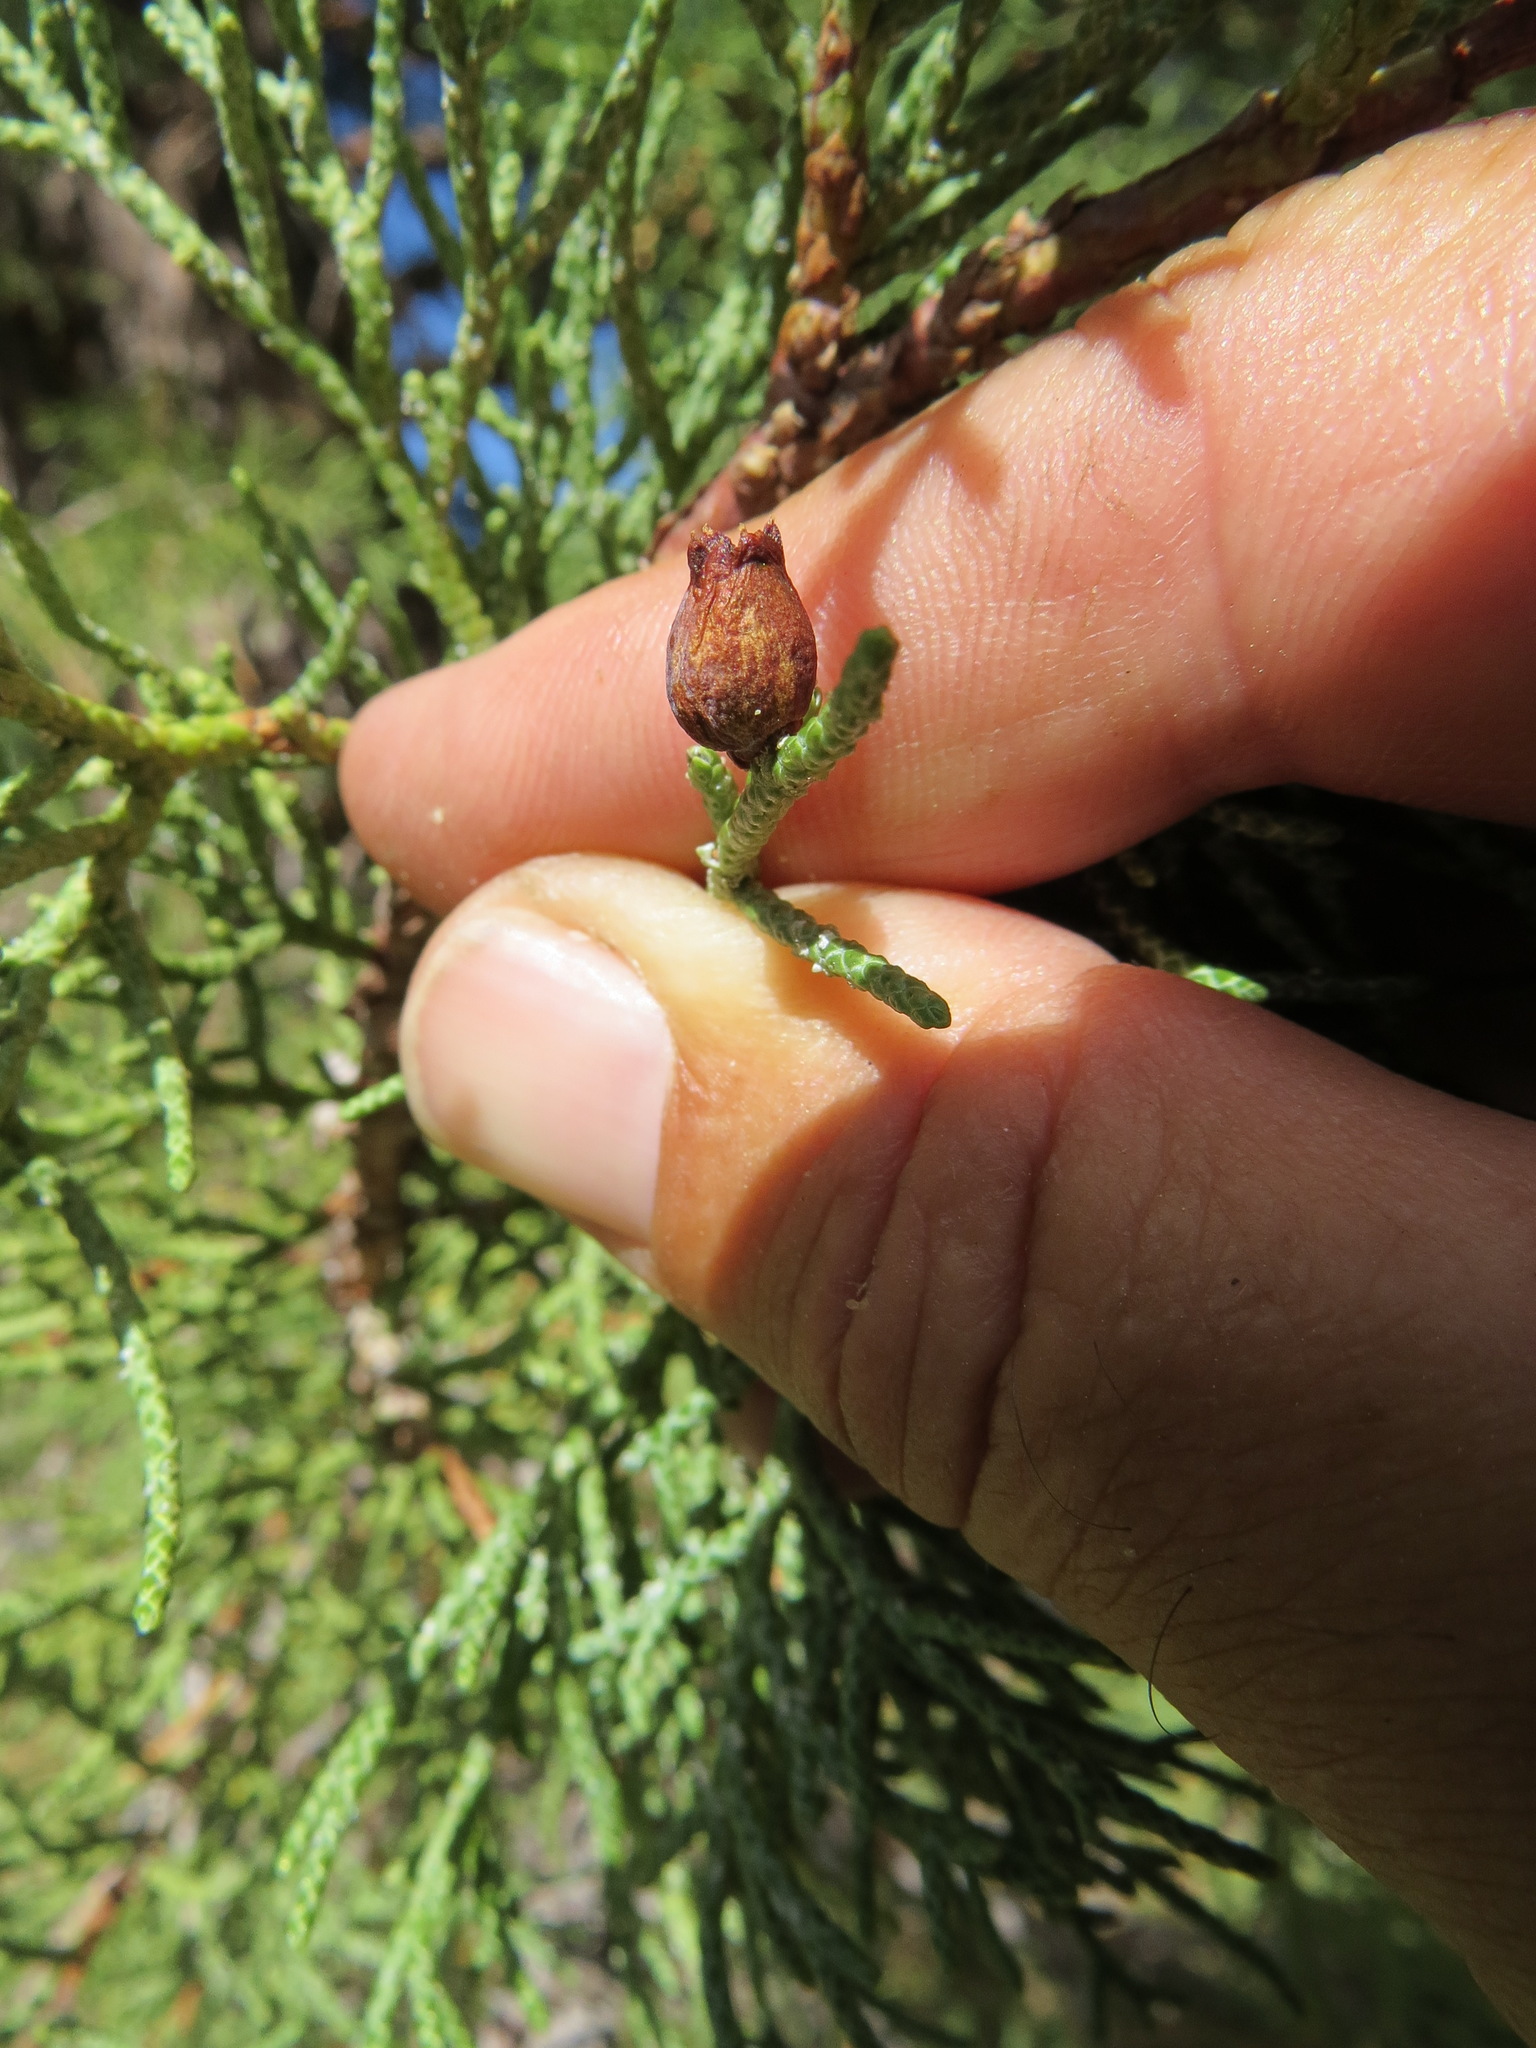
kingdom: Animalia
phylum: Arthropoda
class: Insecta
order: Diptera
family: Cecidomyiidae
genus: Walshomyia
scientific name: Walshomyia juniperina
